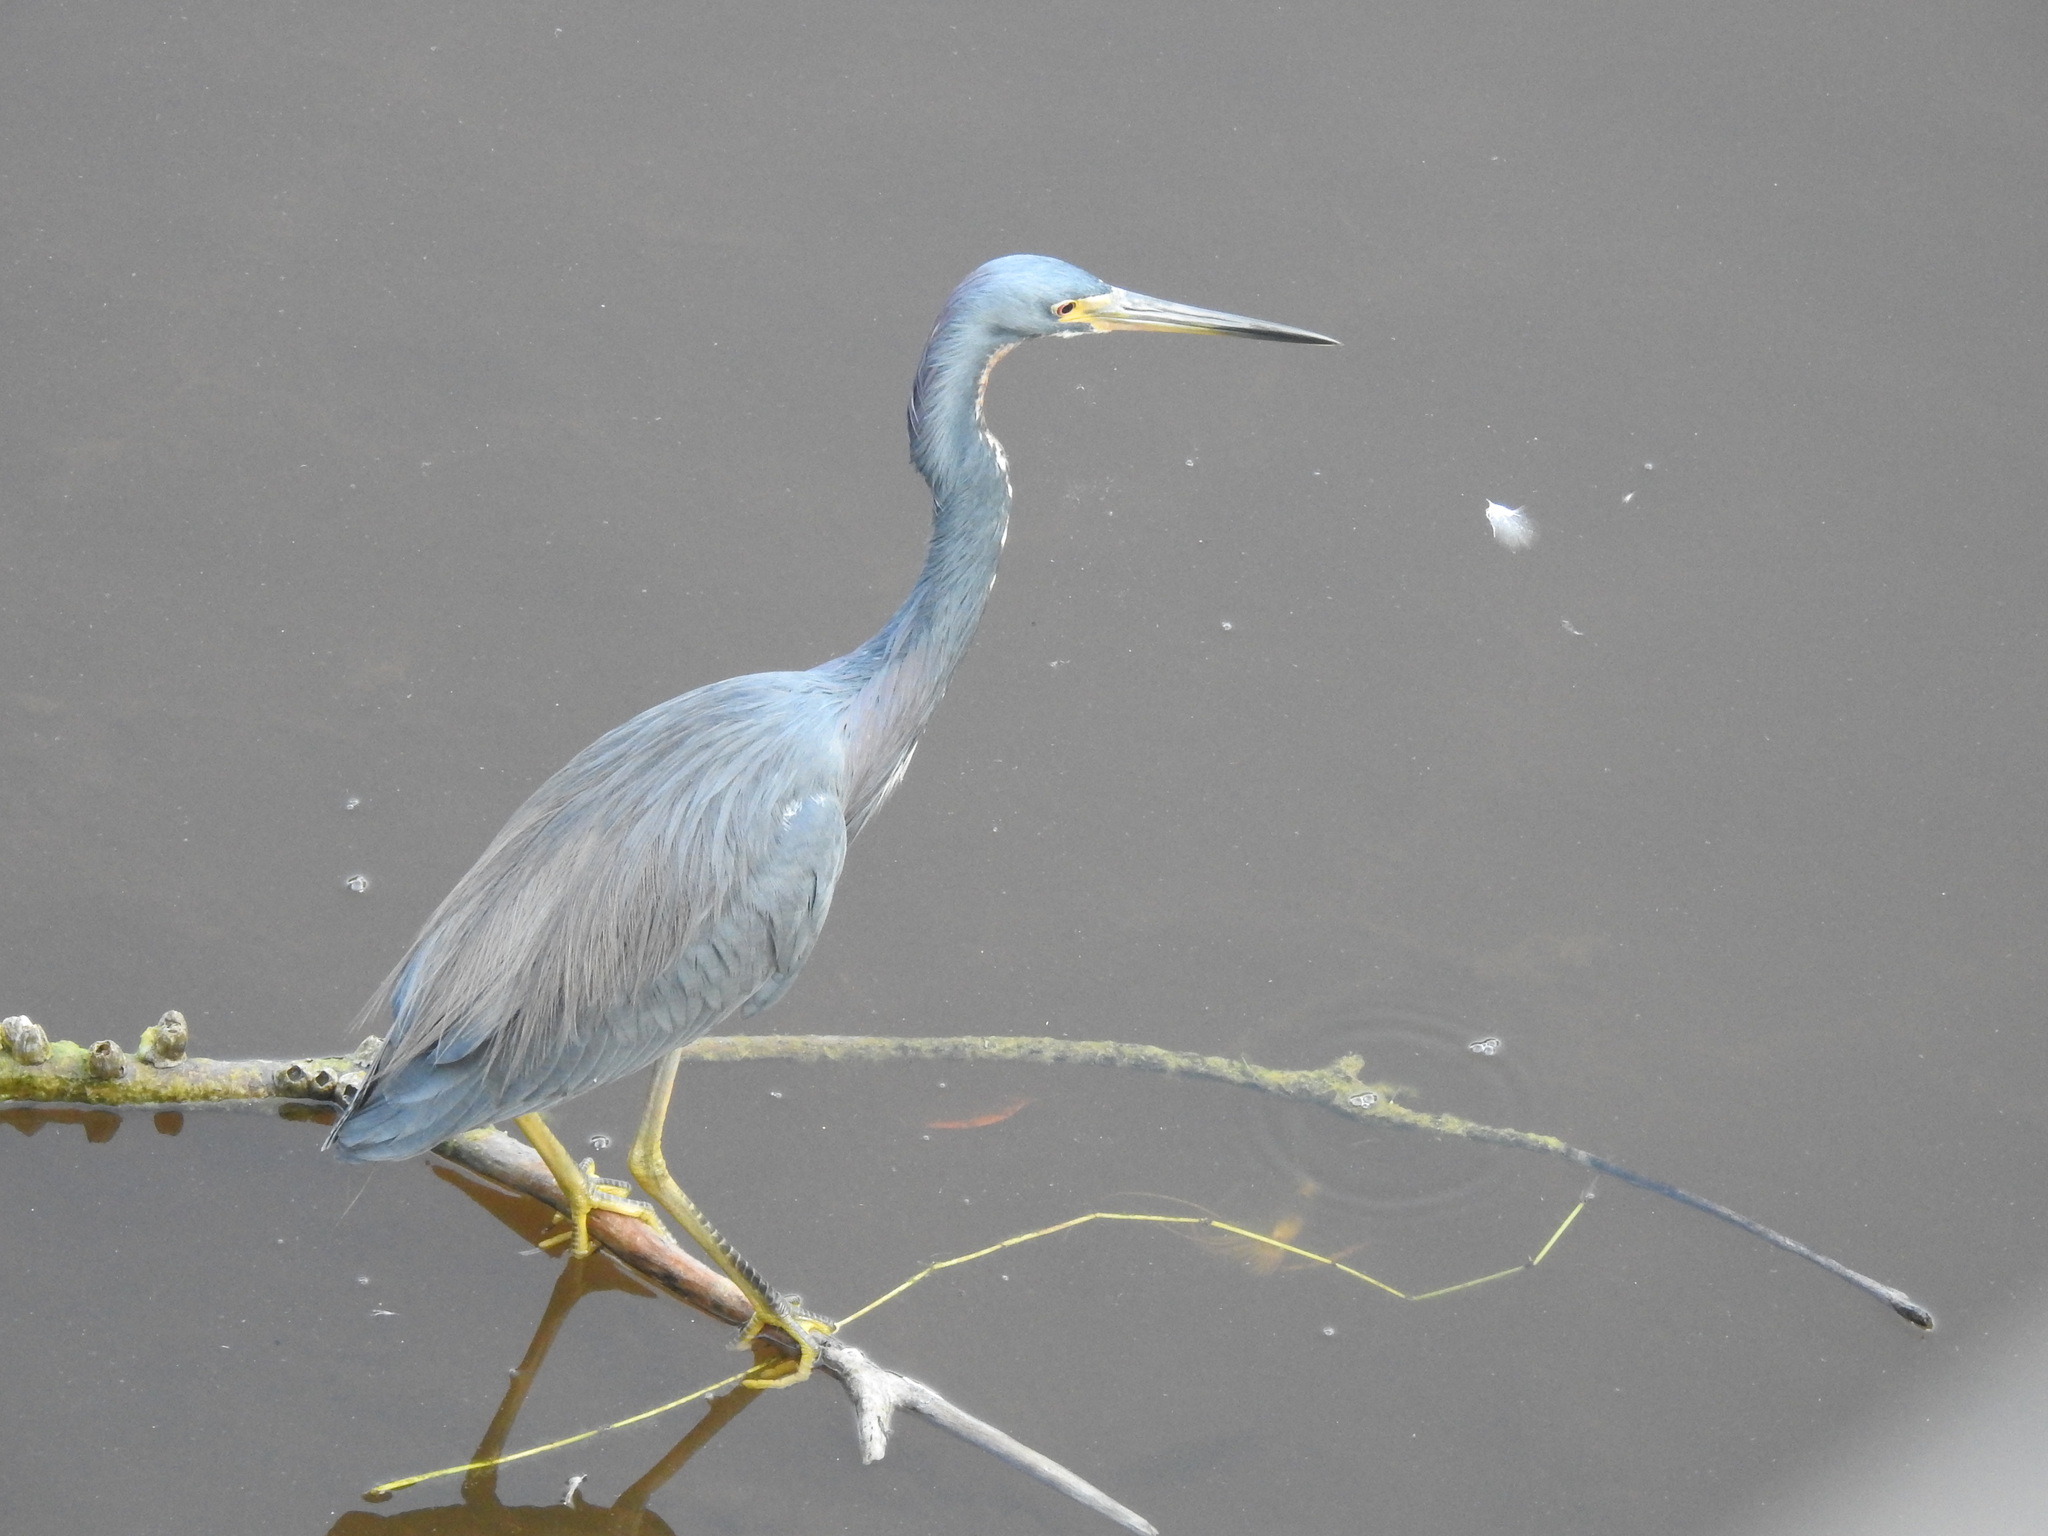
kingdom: Animalia
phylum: Chordata
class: Aves
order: Pelecaniformes
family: Ardeidae
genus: Egretta
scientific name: Egretta tricolor
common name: Tricolored heron
